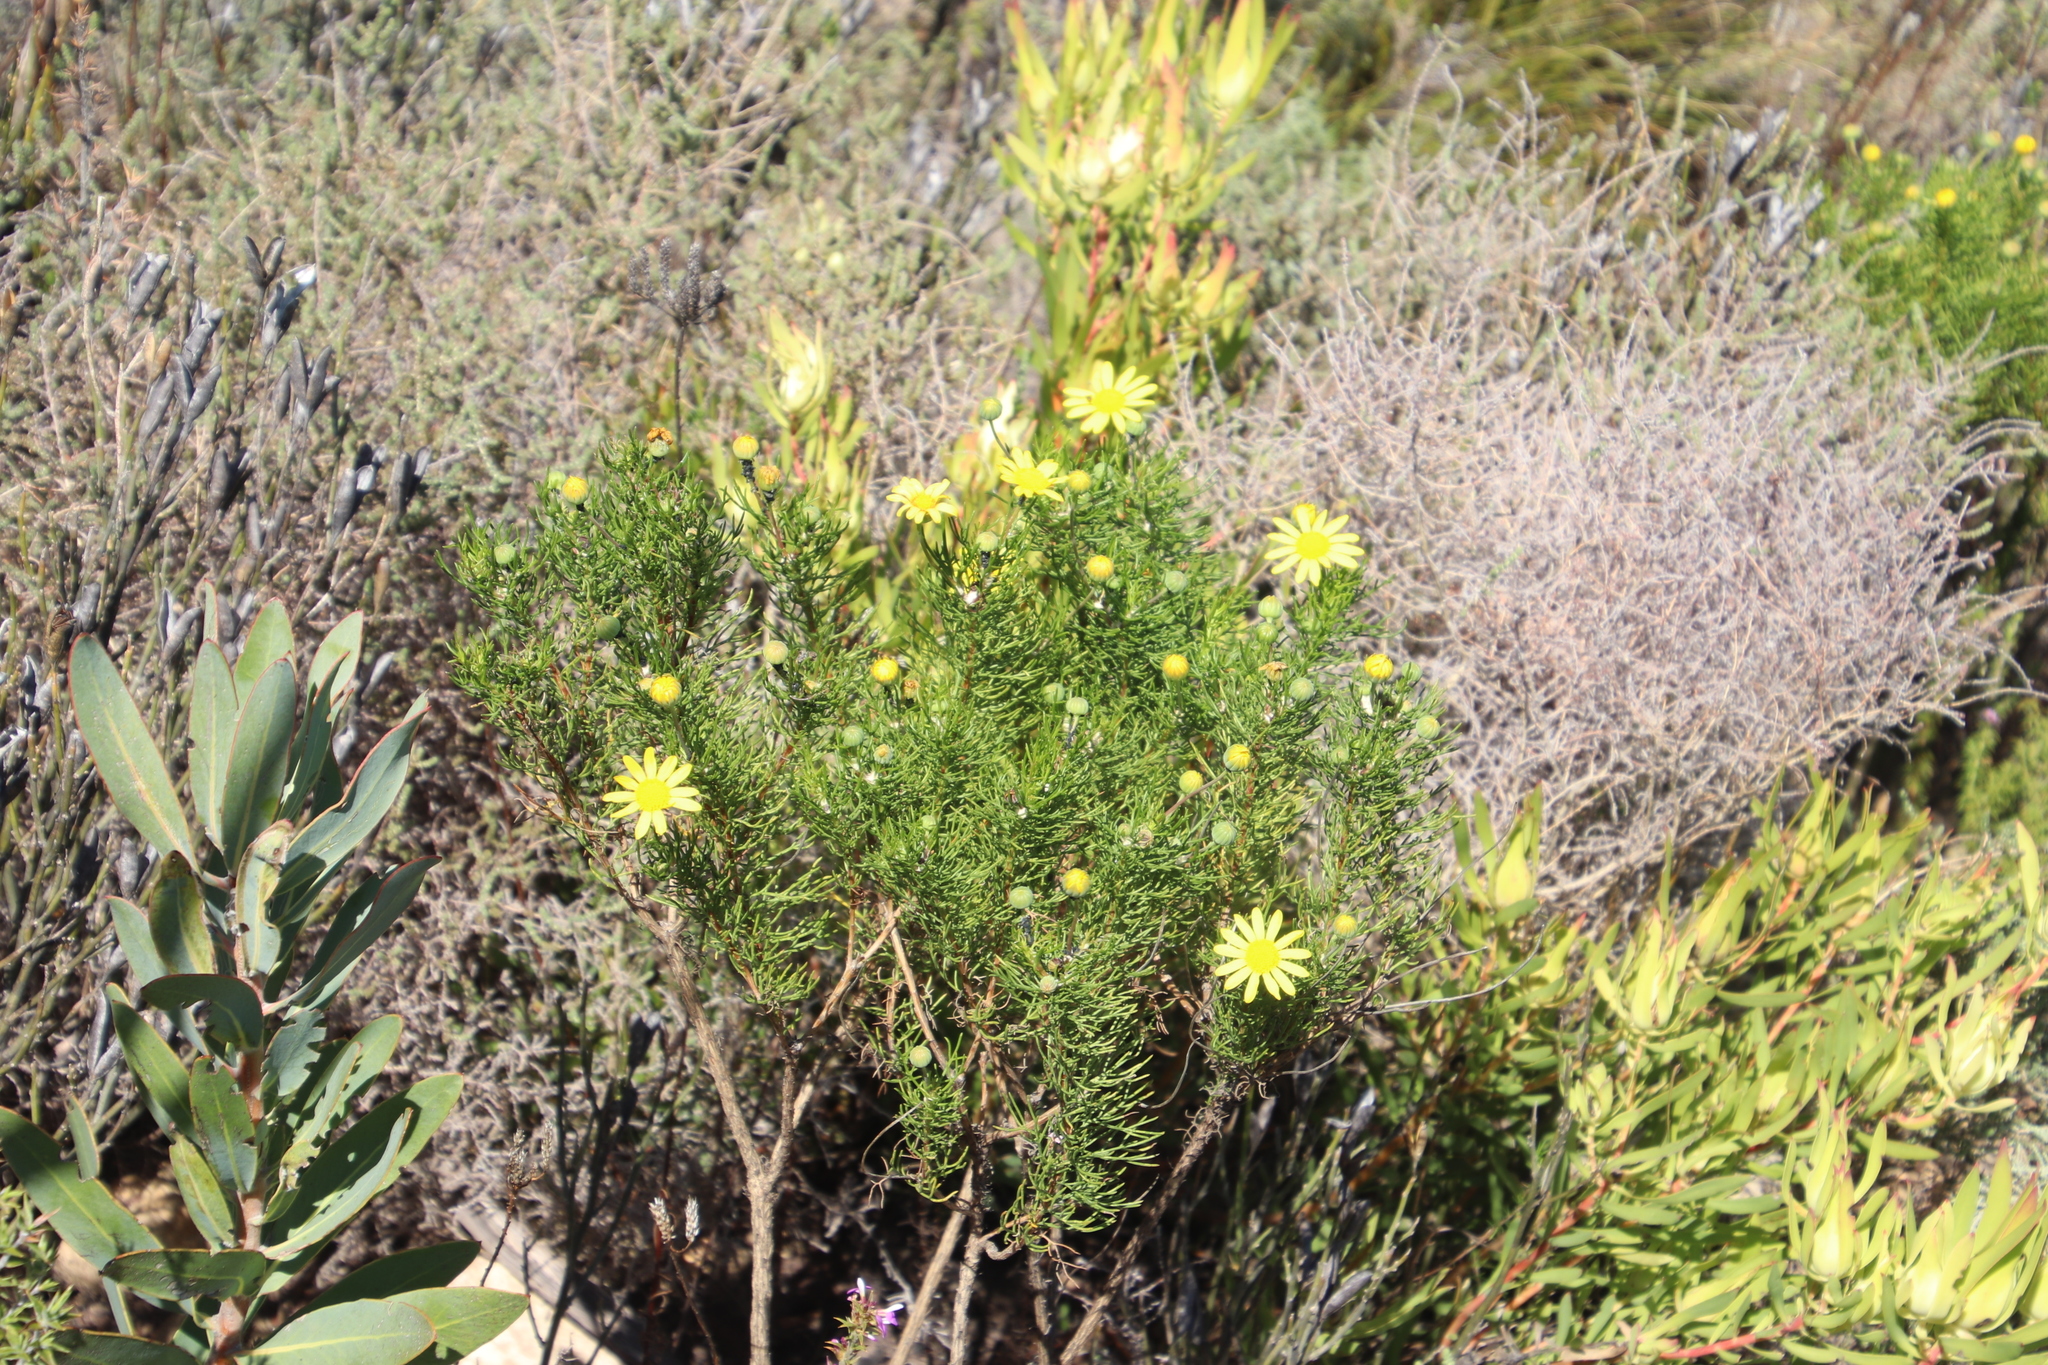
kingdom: Plantae
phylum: Tracheophyta
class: Magnoliopsida
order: Asterales
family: Asteraceae
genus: Euryops
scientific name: Euryops abrotanifolius
